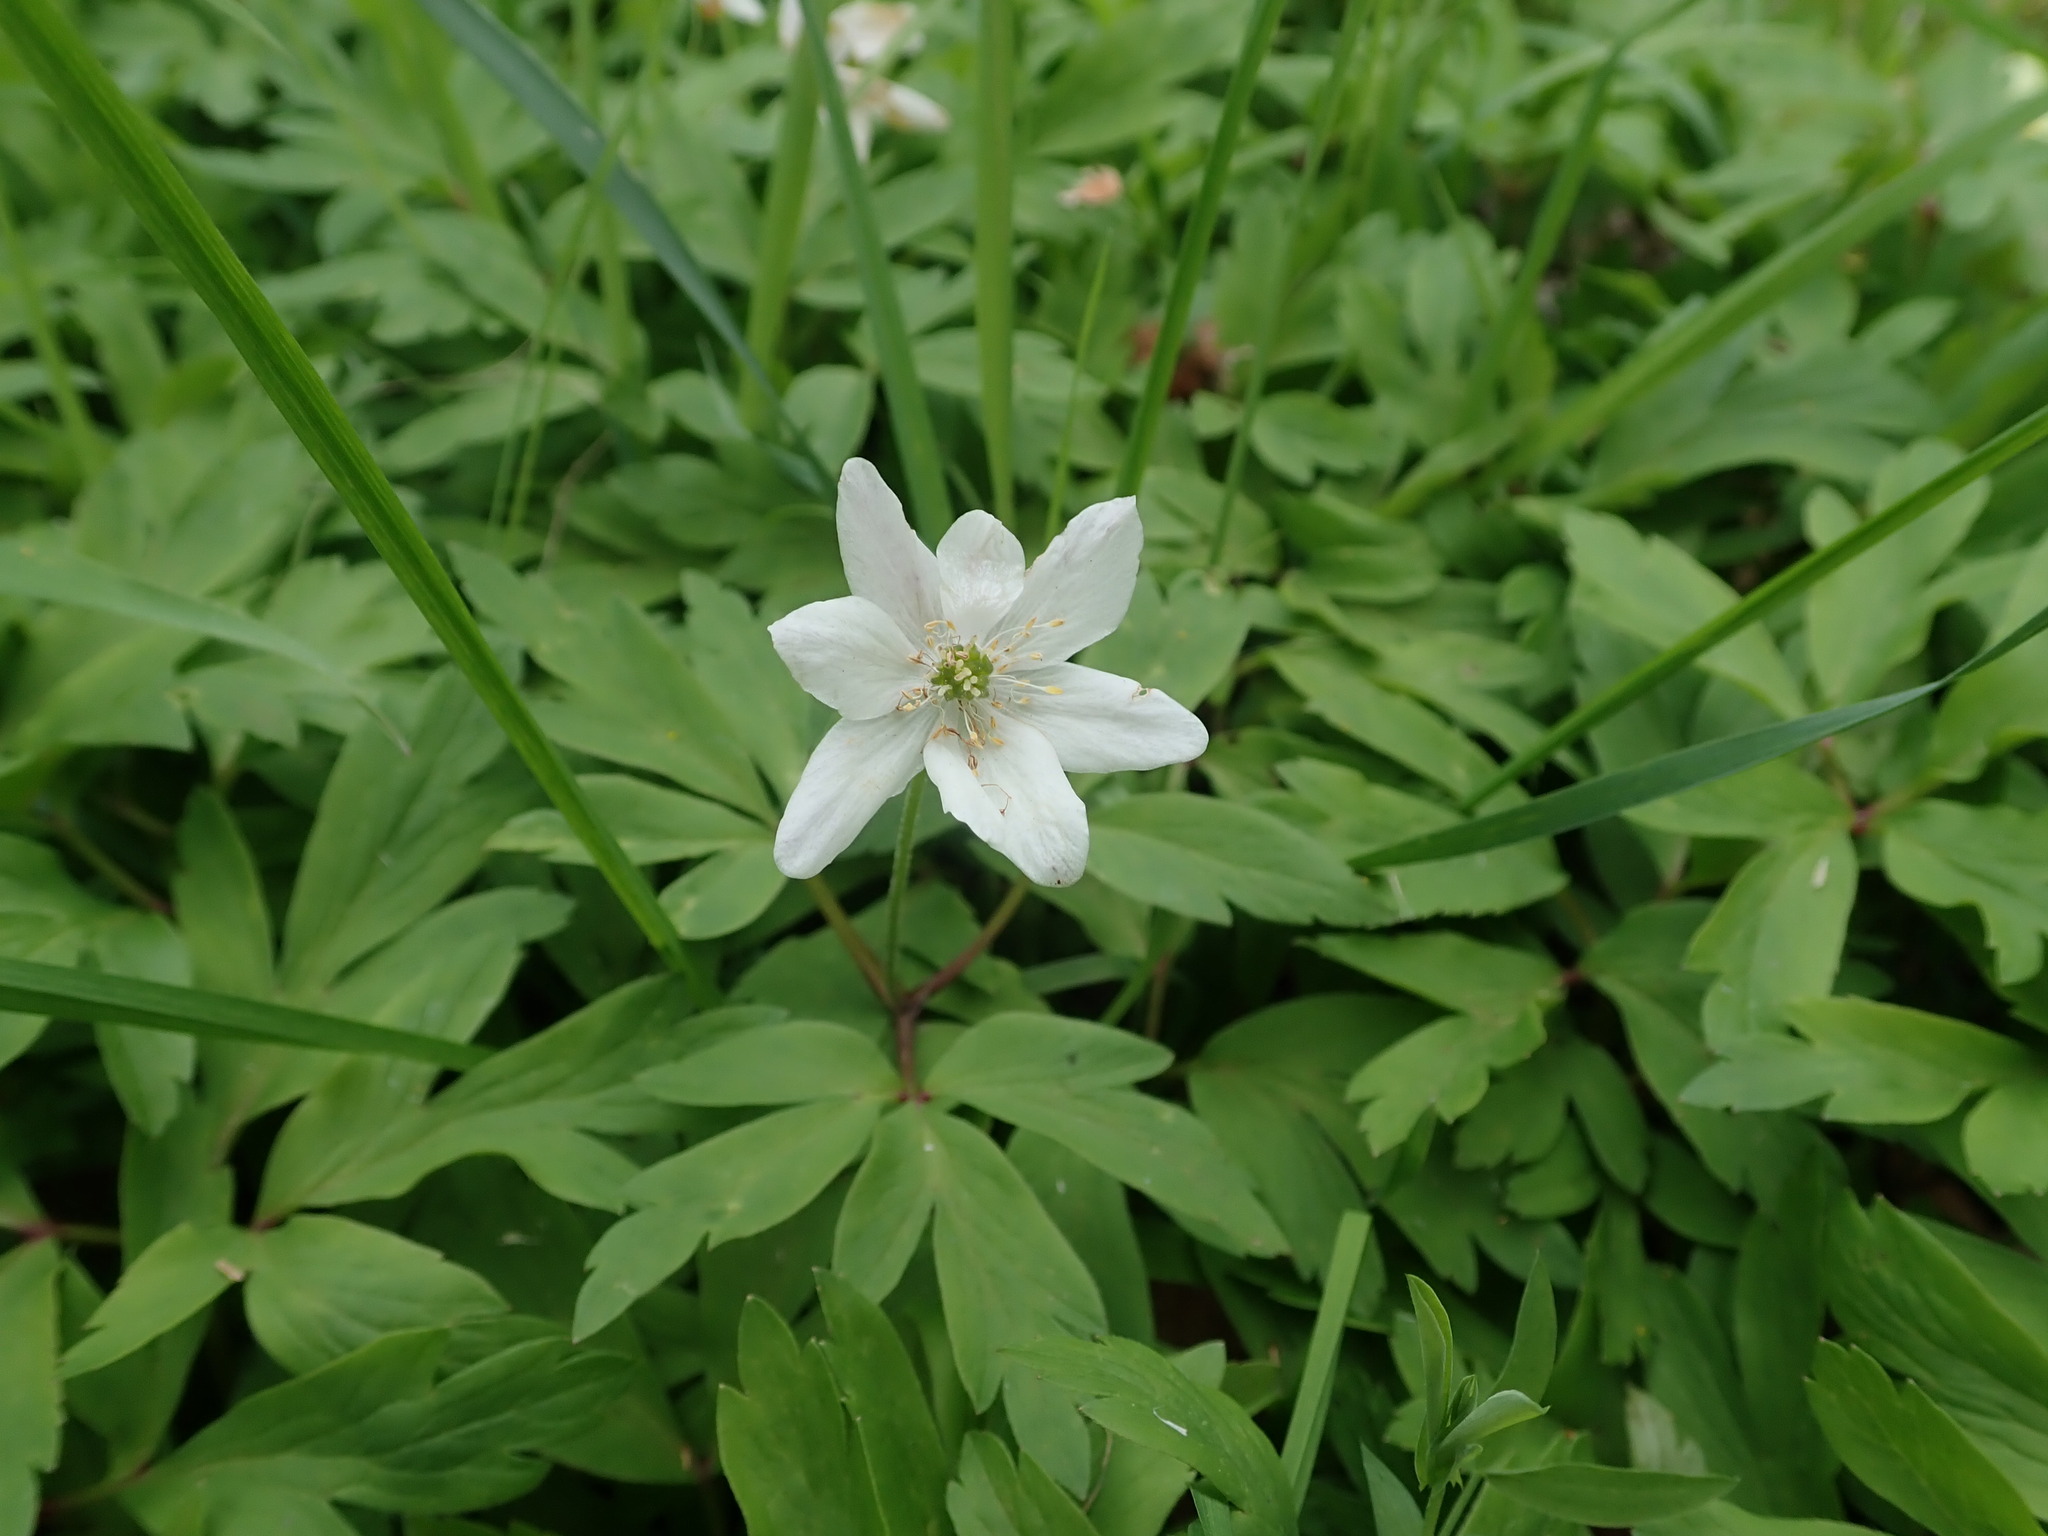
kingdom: Plantae
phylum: Tracheophyta
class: Magnoliopsida
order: Ranunculales
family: Ranunculaceae
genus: Anemone
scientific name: Anemone nemorosa
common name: Wood anemone
